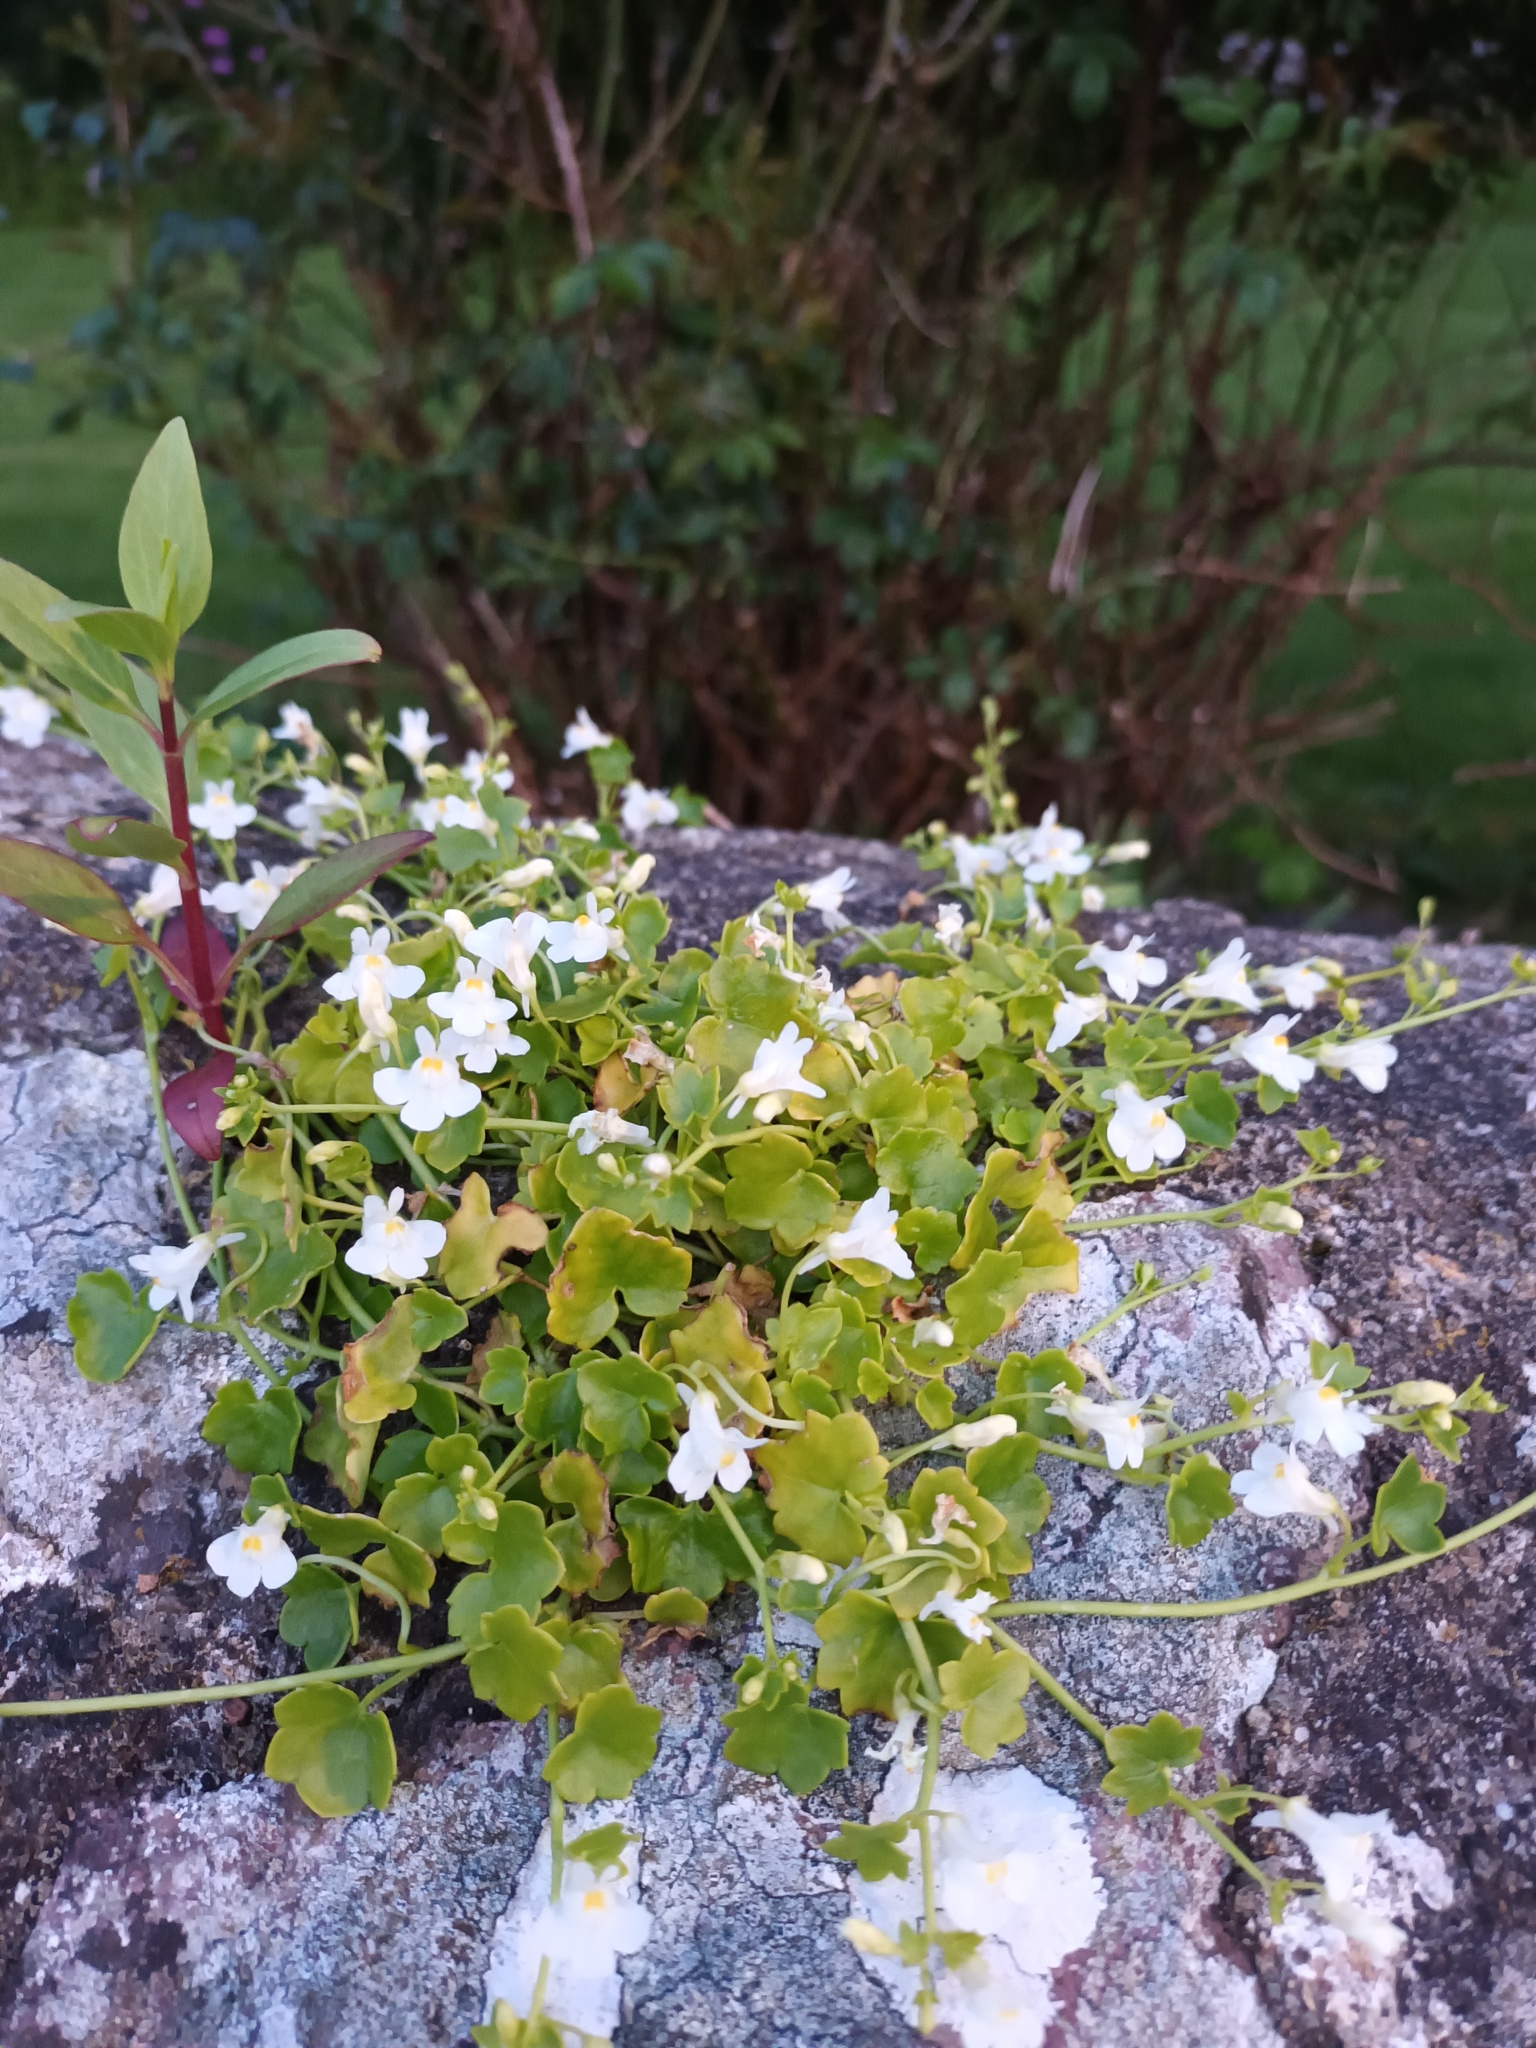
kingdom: Plantae
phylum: Tracheophyta
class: Magnoliopsida
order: Lamiales
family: Plantaginaceae
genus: Cymbalaria
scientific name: Cymbalaria muralis
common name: Ivy-leaved toadflax
